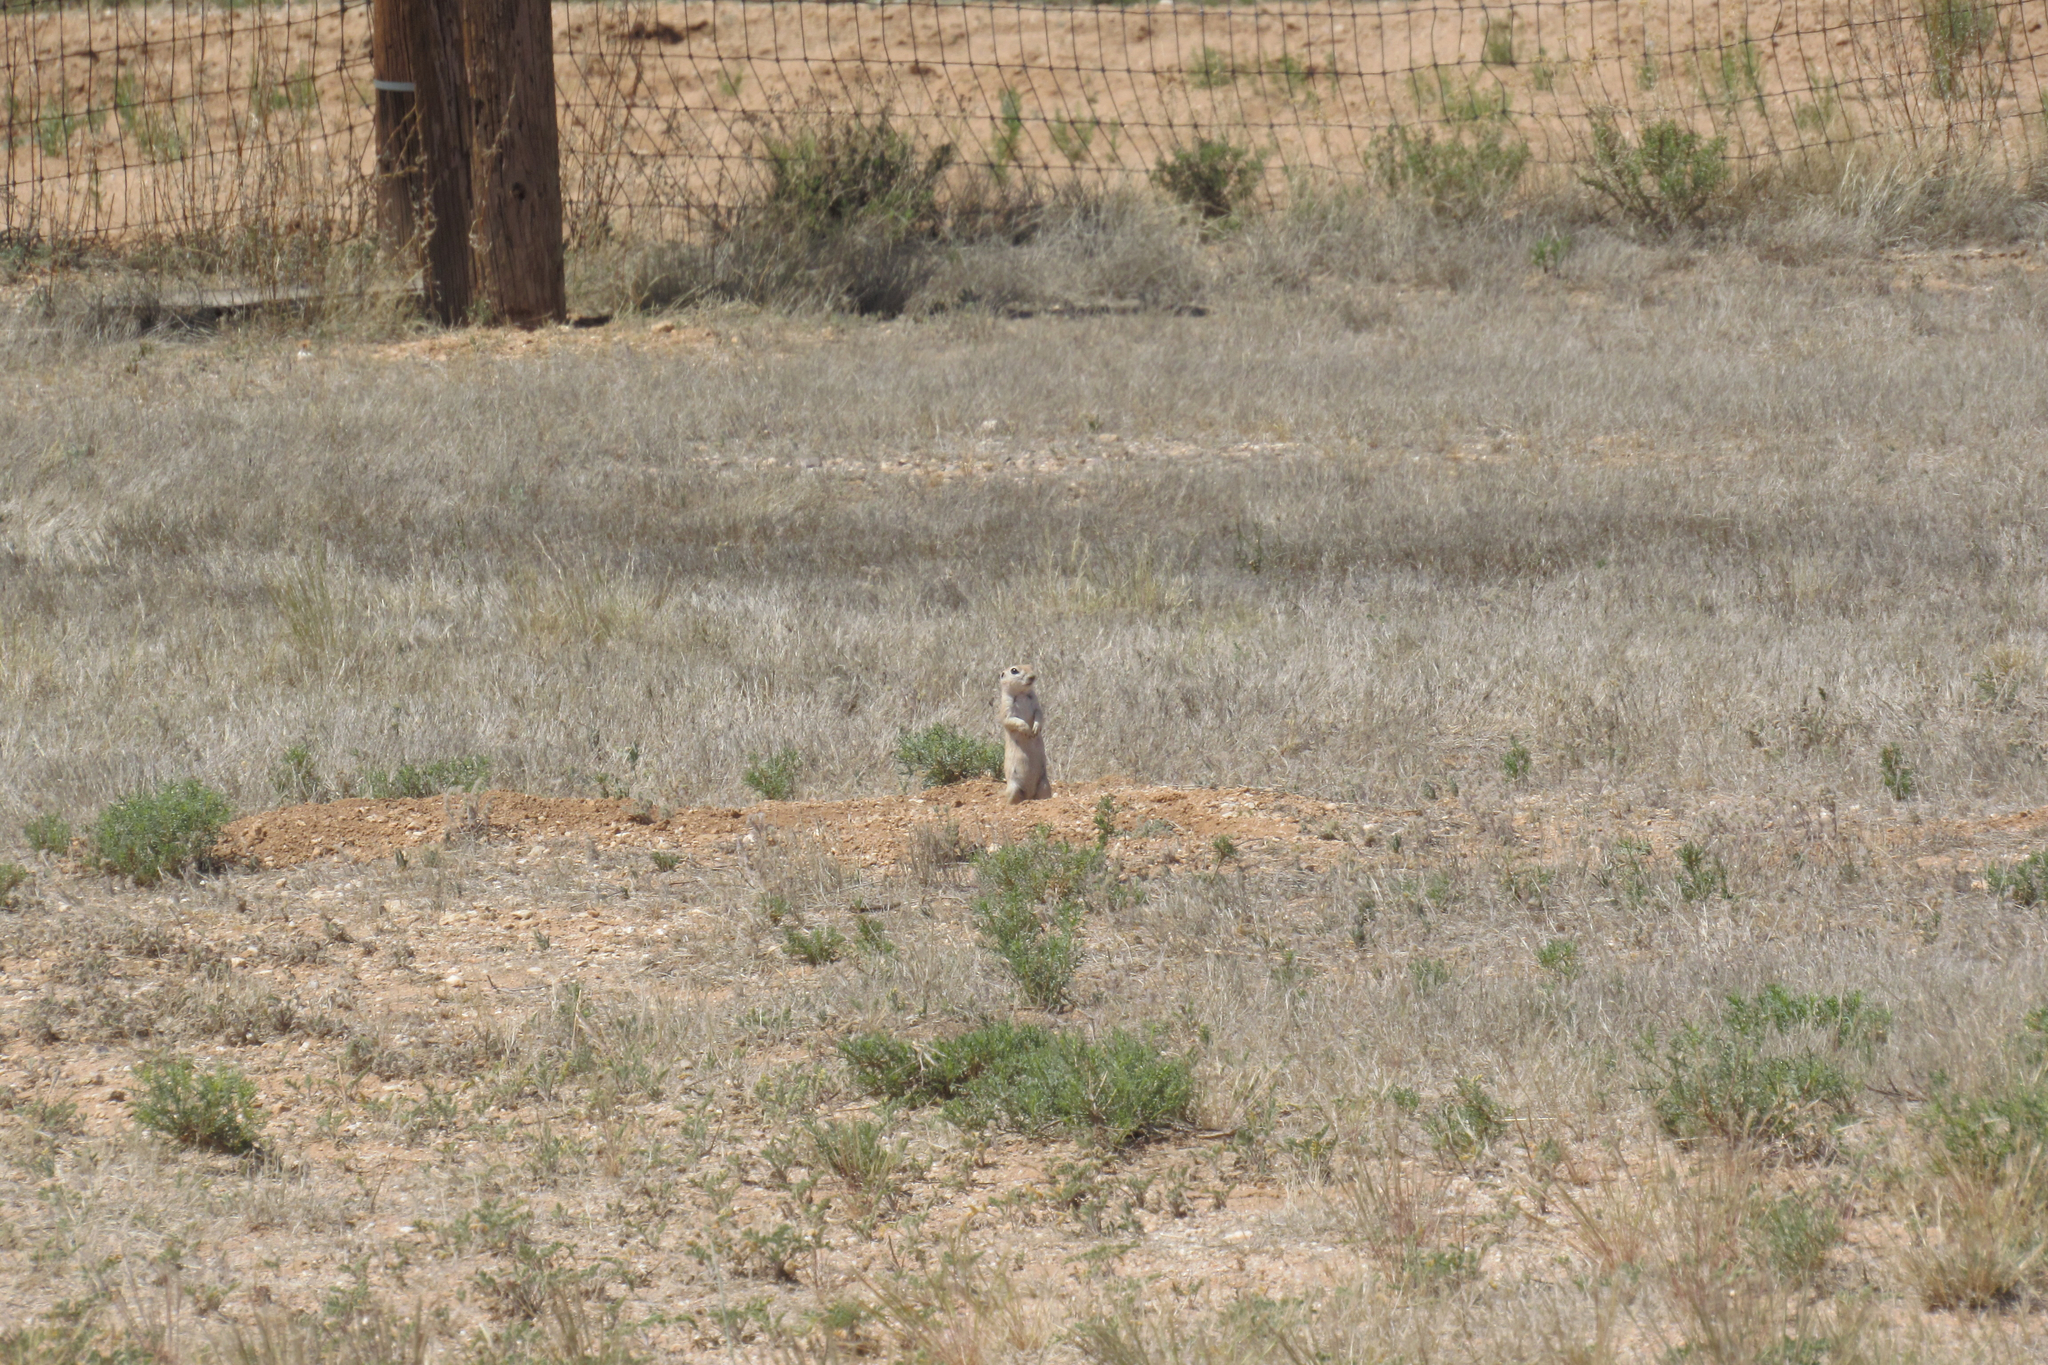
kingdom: Animalia
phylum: Chordata
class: Mammalia
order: Rodentia
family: Sciuridae
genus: Xerospermophilus
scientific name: Xerospermophilus tereticaudus
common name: Round-tailed ground squirrel
